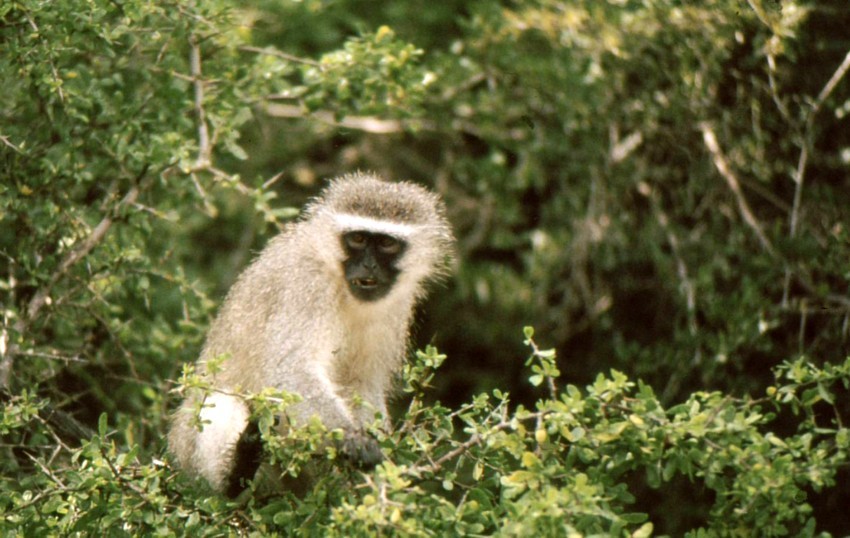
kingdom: Animalia
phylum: Chordata
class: Mammalia
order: Primates
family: Cercopithecidae
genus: Chlorocebus
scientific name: Chlorocebus pygerythrus
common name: Vervet monkey
